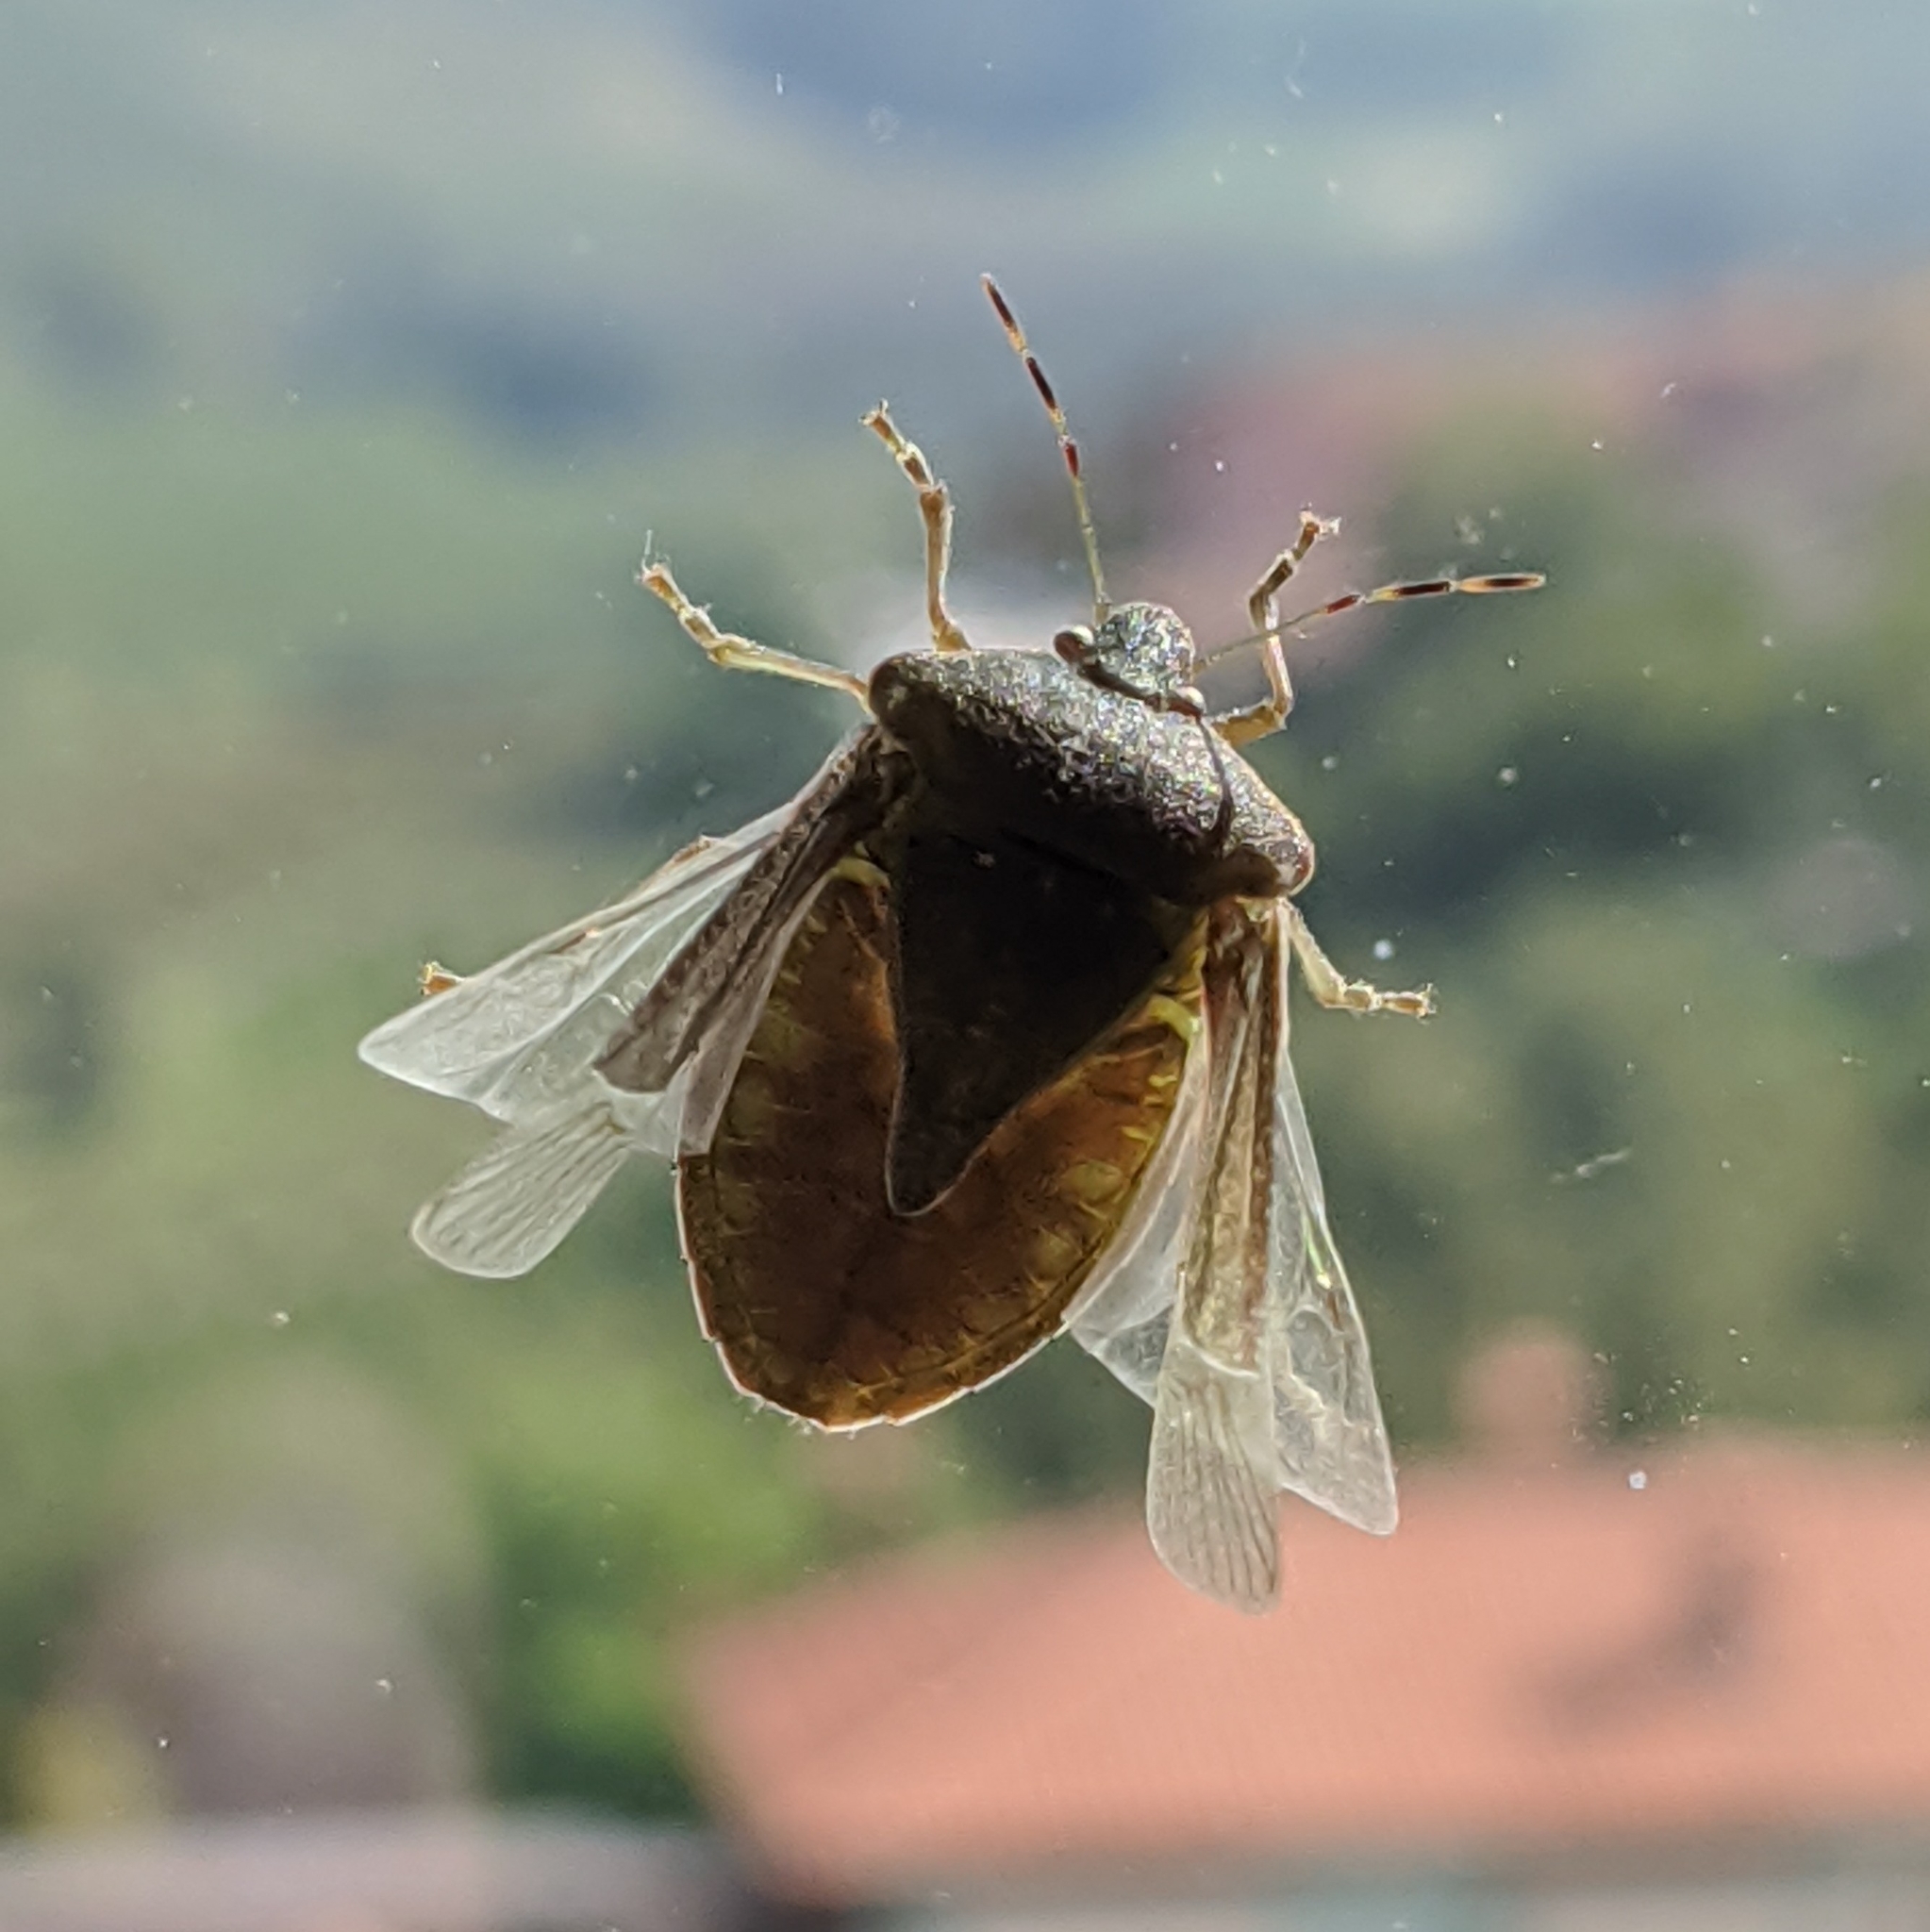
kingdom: Animalia
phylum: Arthropoda
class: Insecta
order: Hemiptera
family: Pentatomidae
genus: Nezara
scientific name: Nezara viridula
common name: Southern green stink bug
